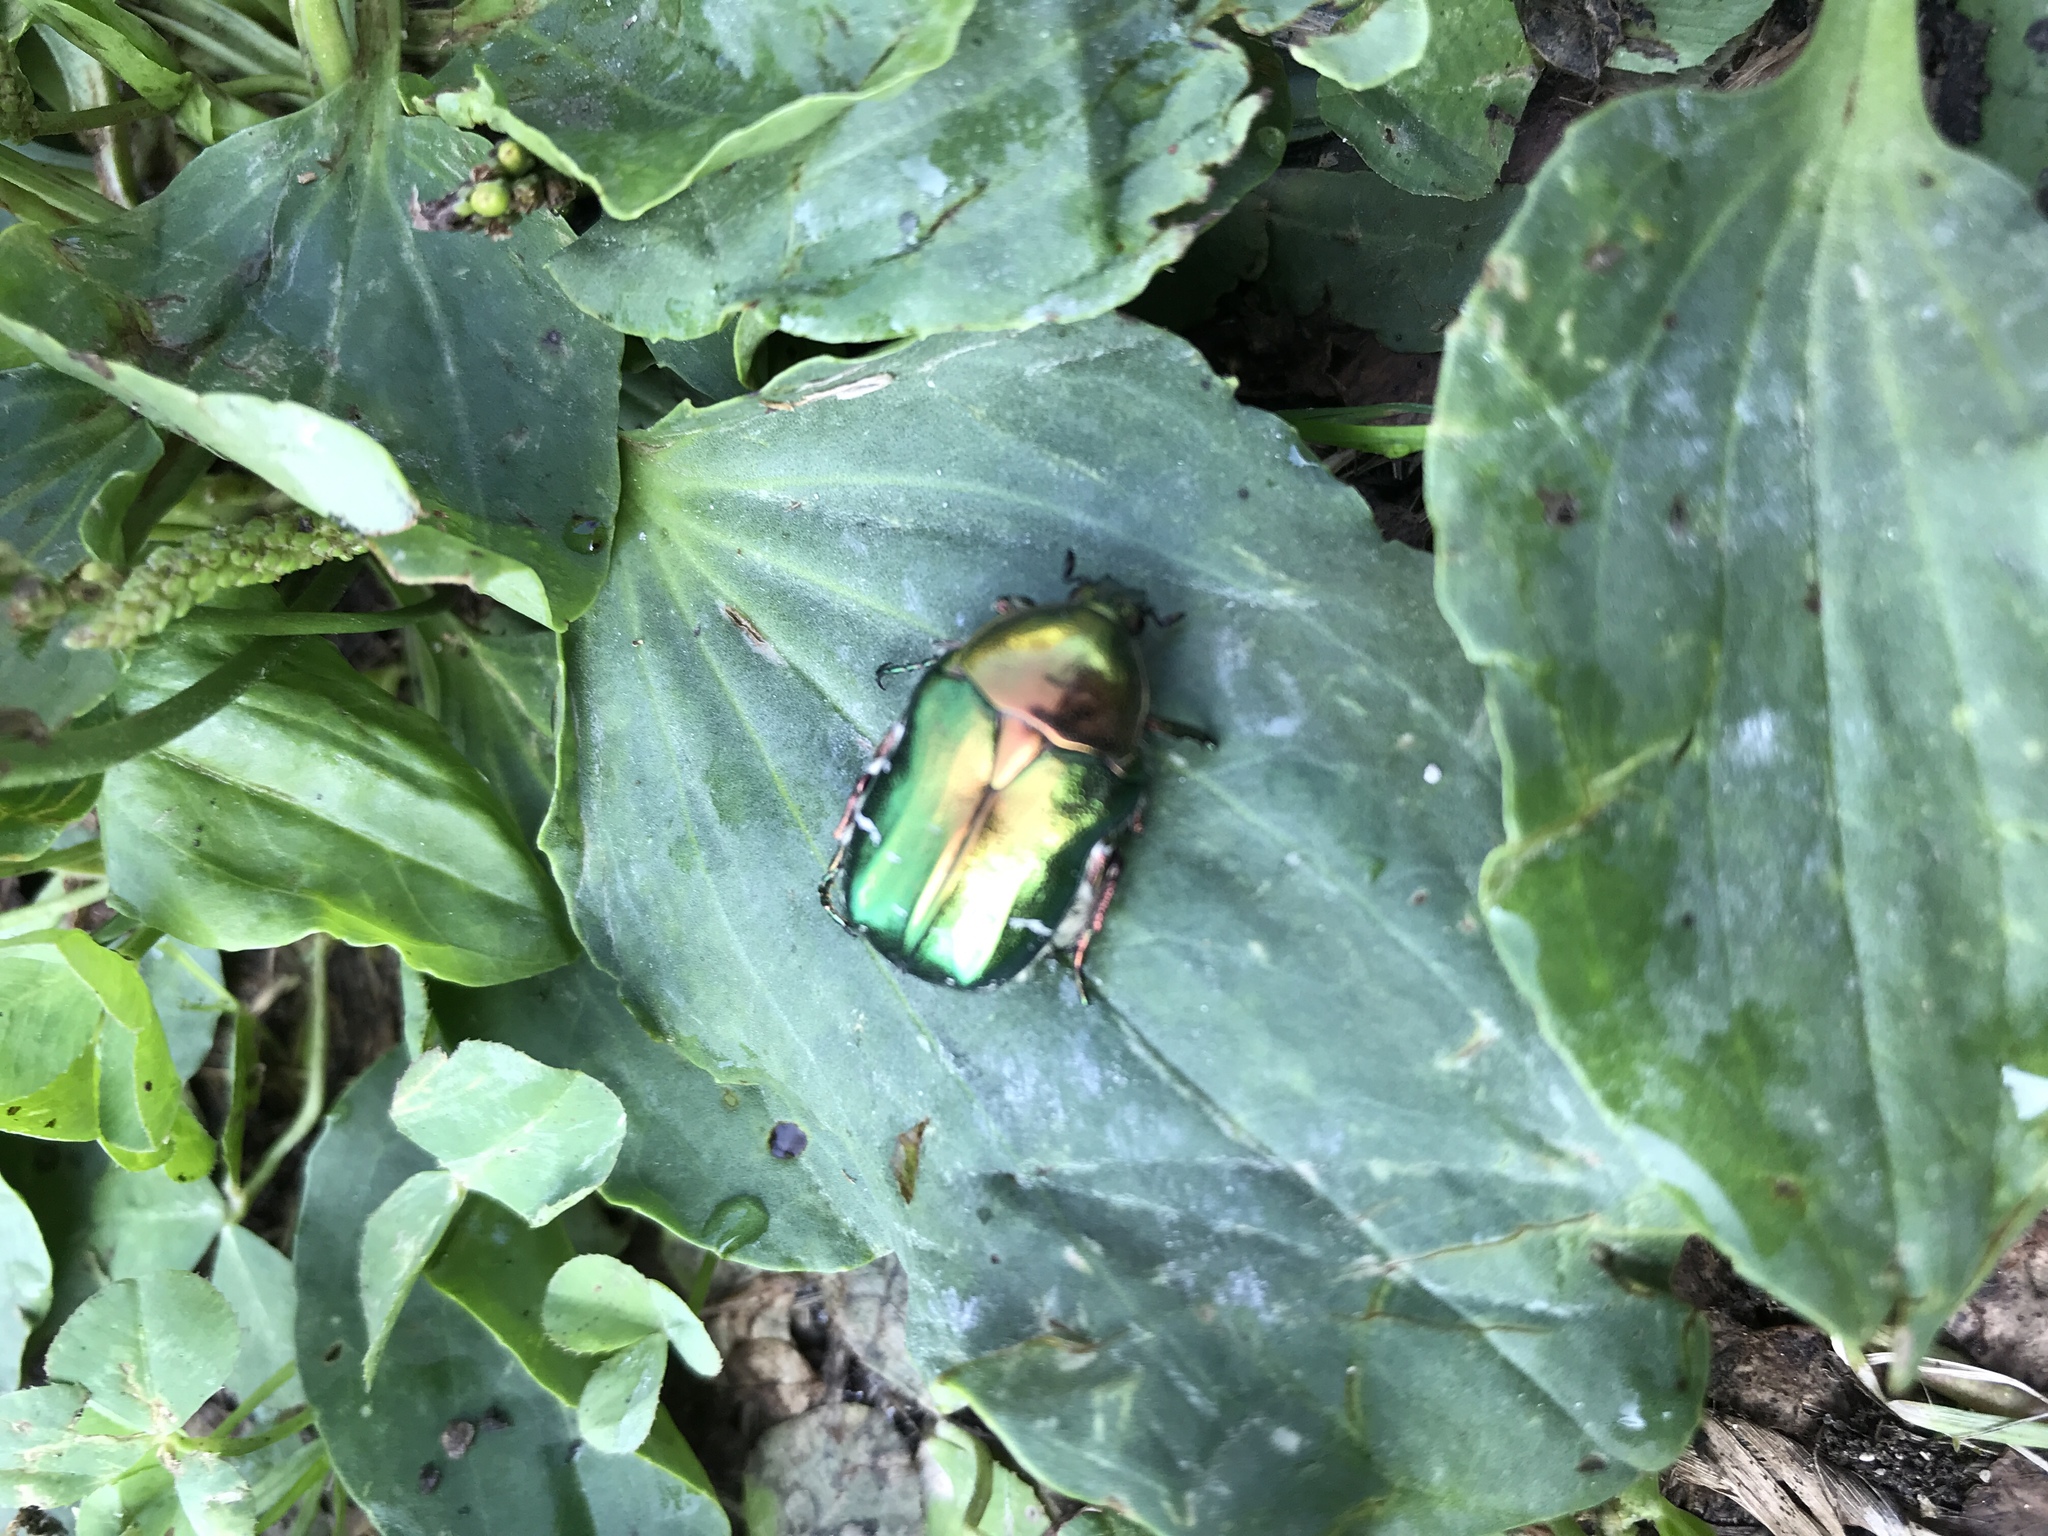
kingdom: Animalia
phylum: Arthropoda
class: Insecta
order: Coleoptera
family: Scarabaeidae
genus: Cetonia
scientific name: Cetonia aurata
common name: Rose chafer
